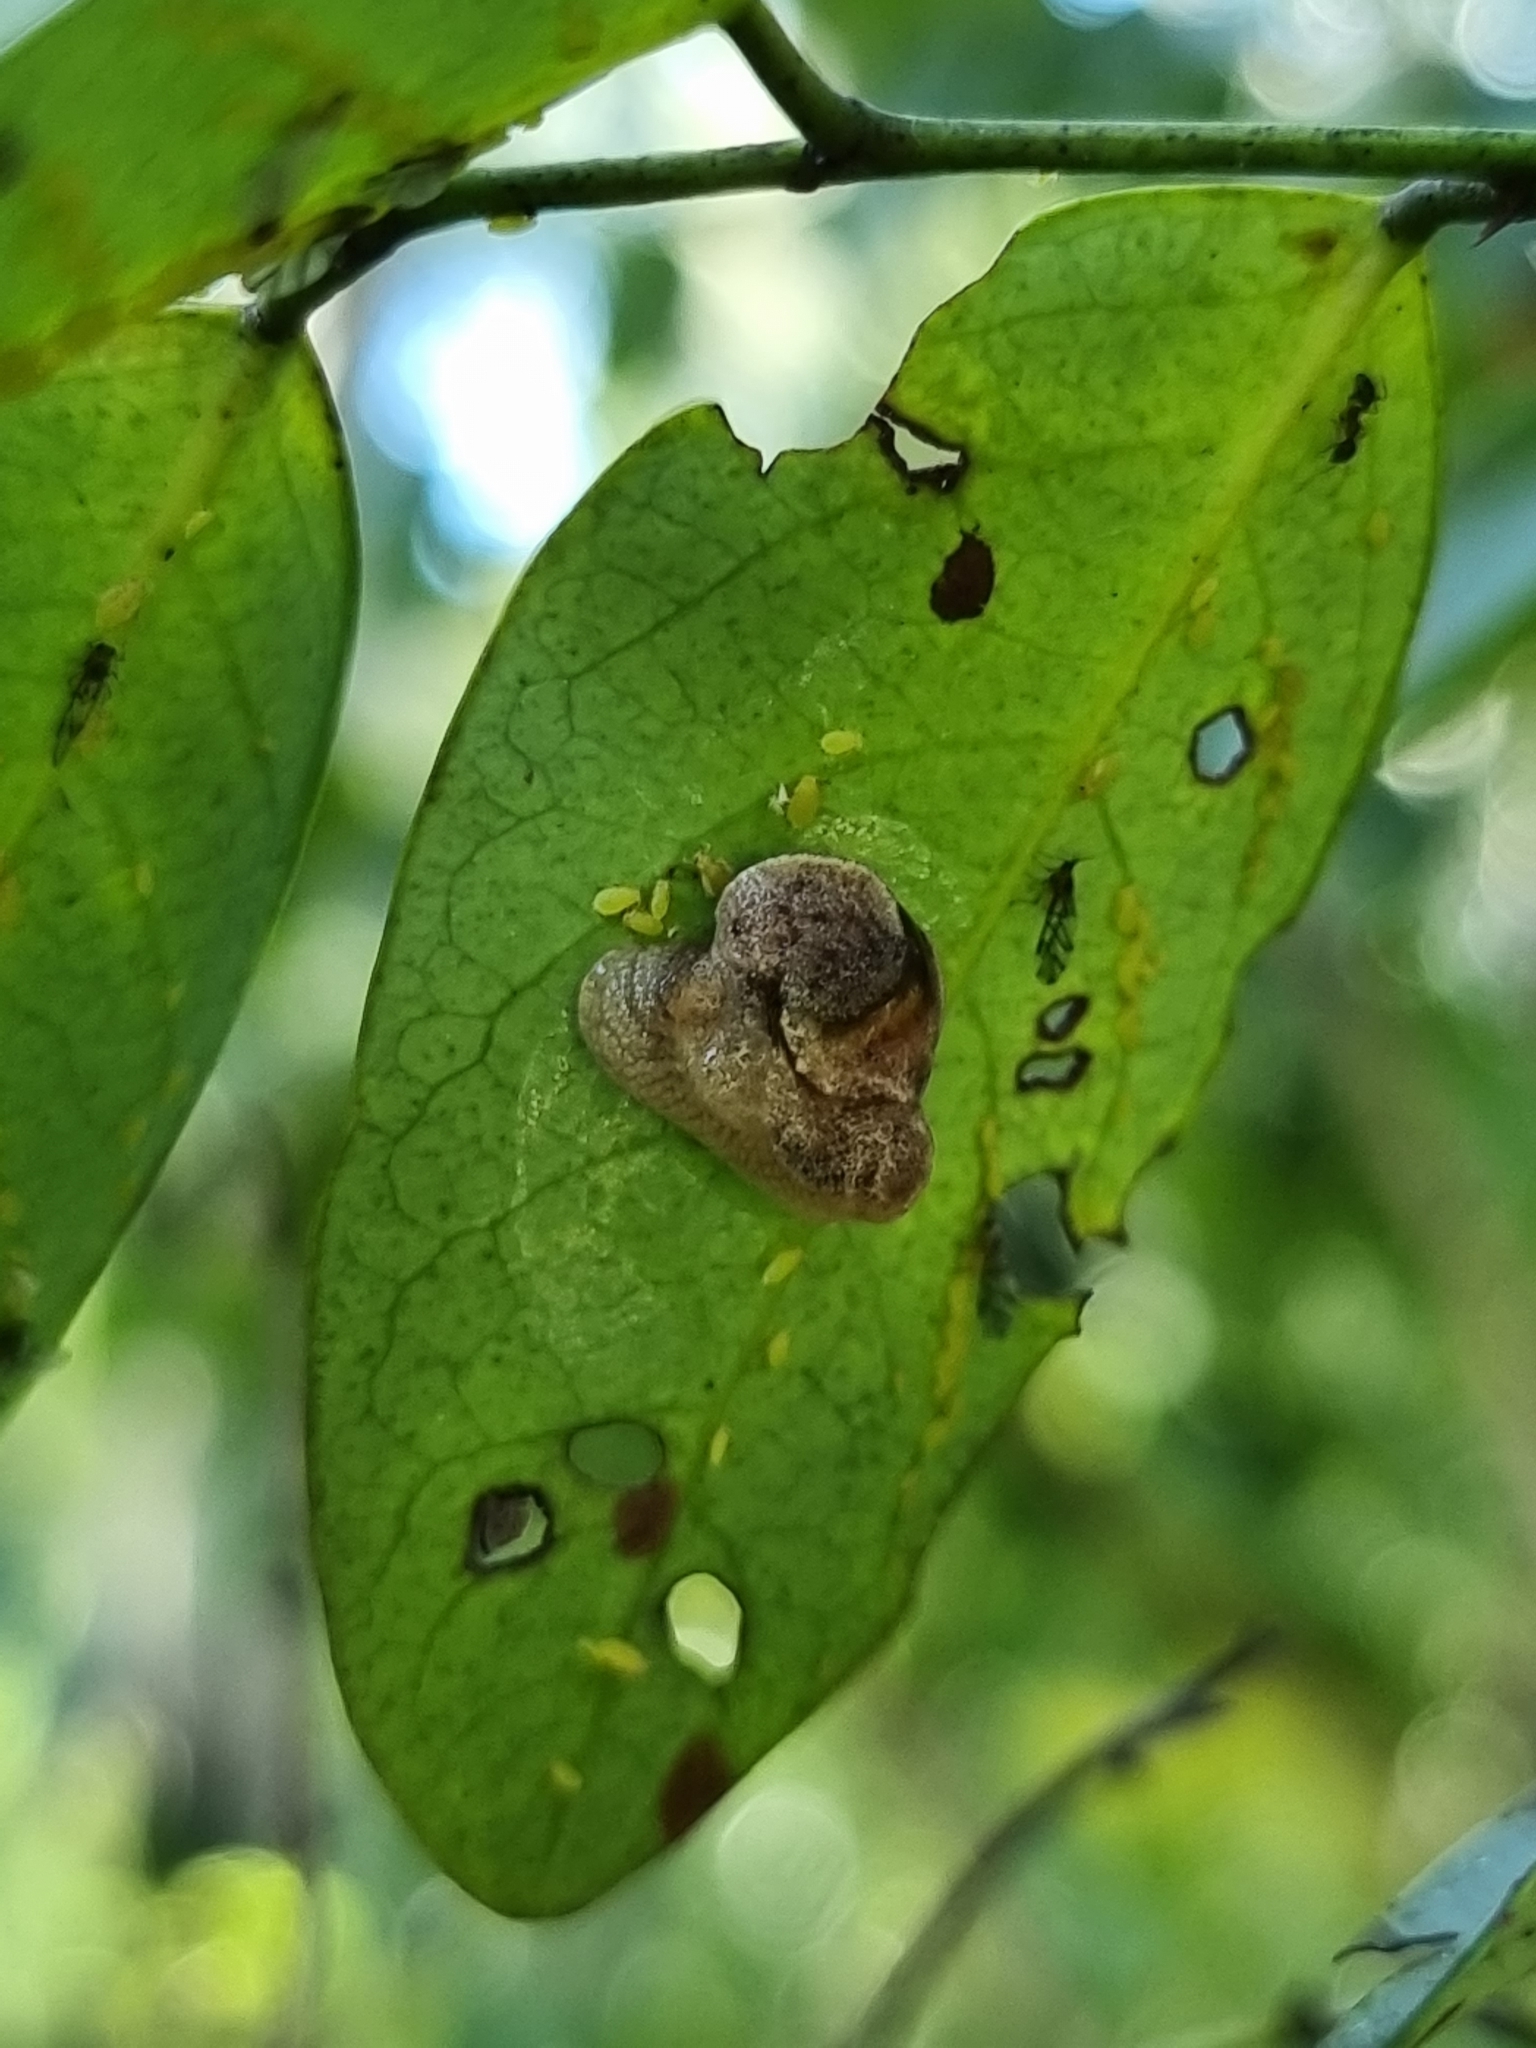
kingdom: Animalia
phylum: Mollusca
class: Gastropoda
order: Stylommatophora
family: Helicarionidae
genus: Ubiquitarion
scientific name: Ubiquitarion iridis
